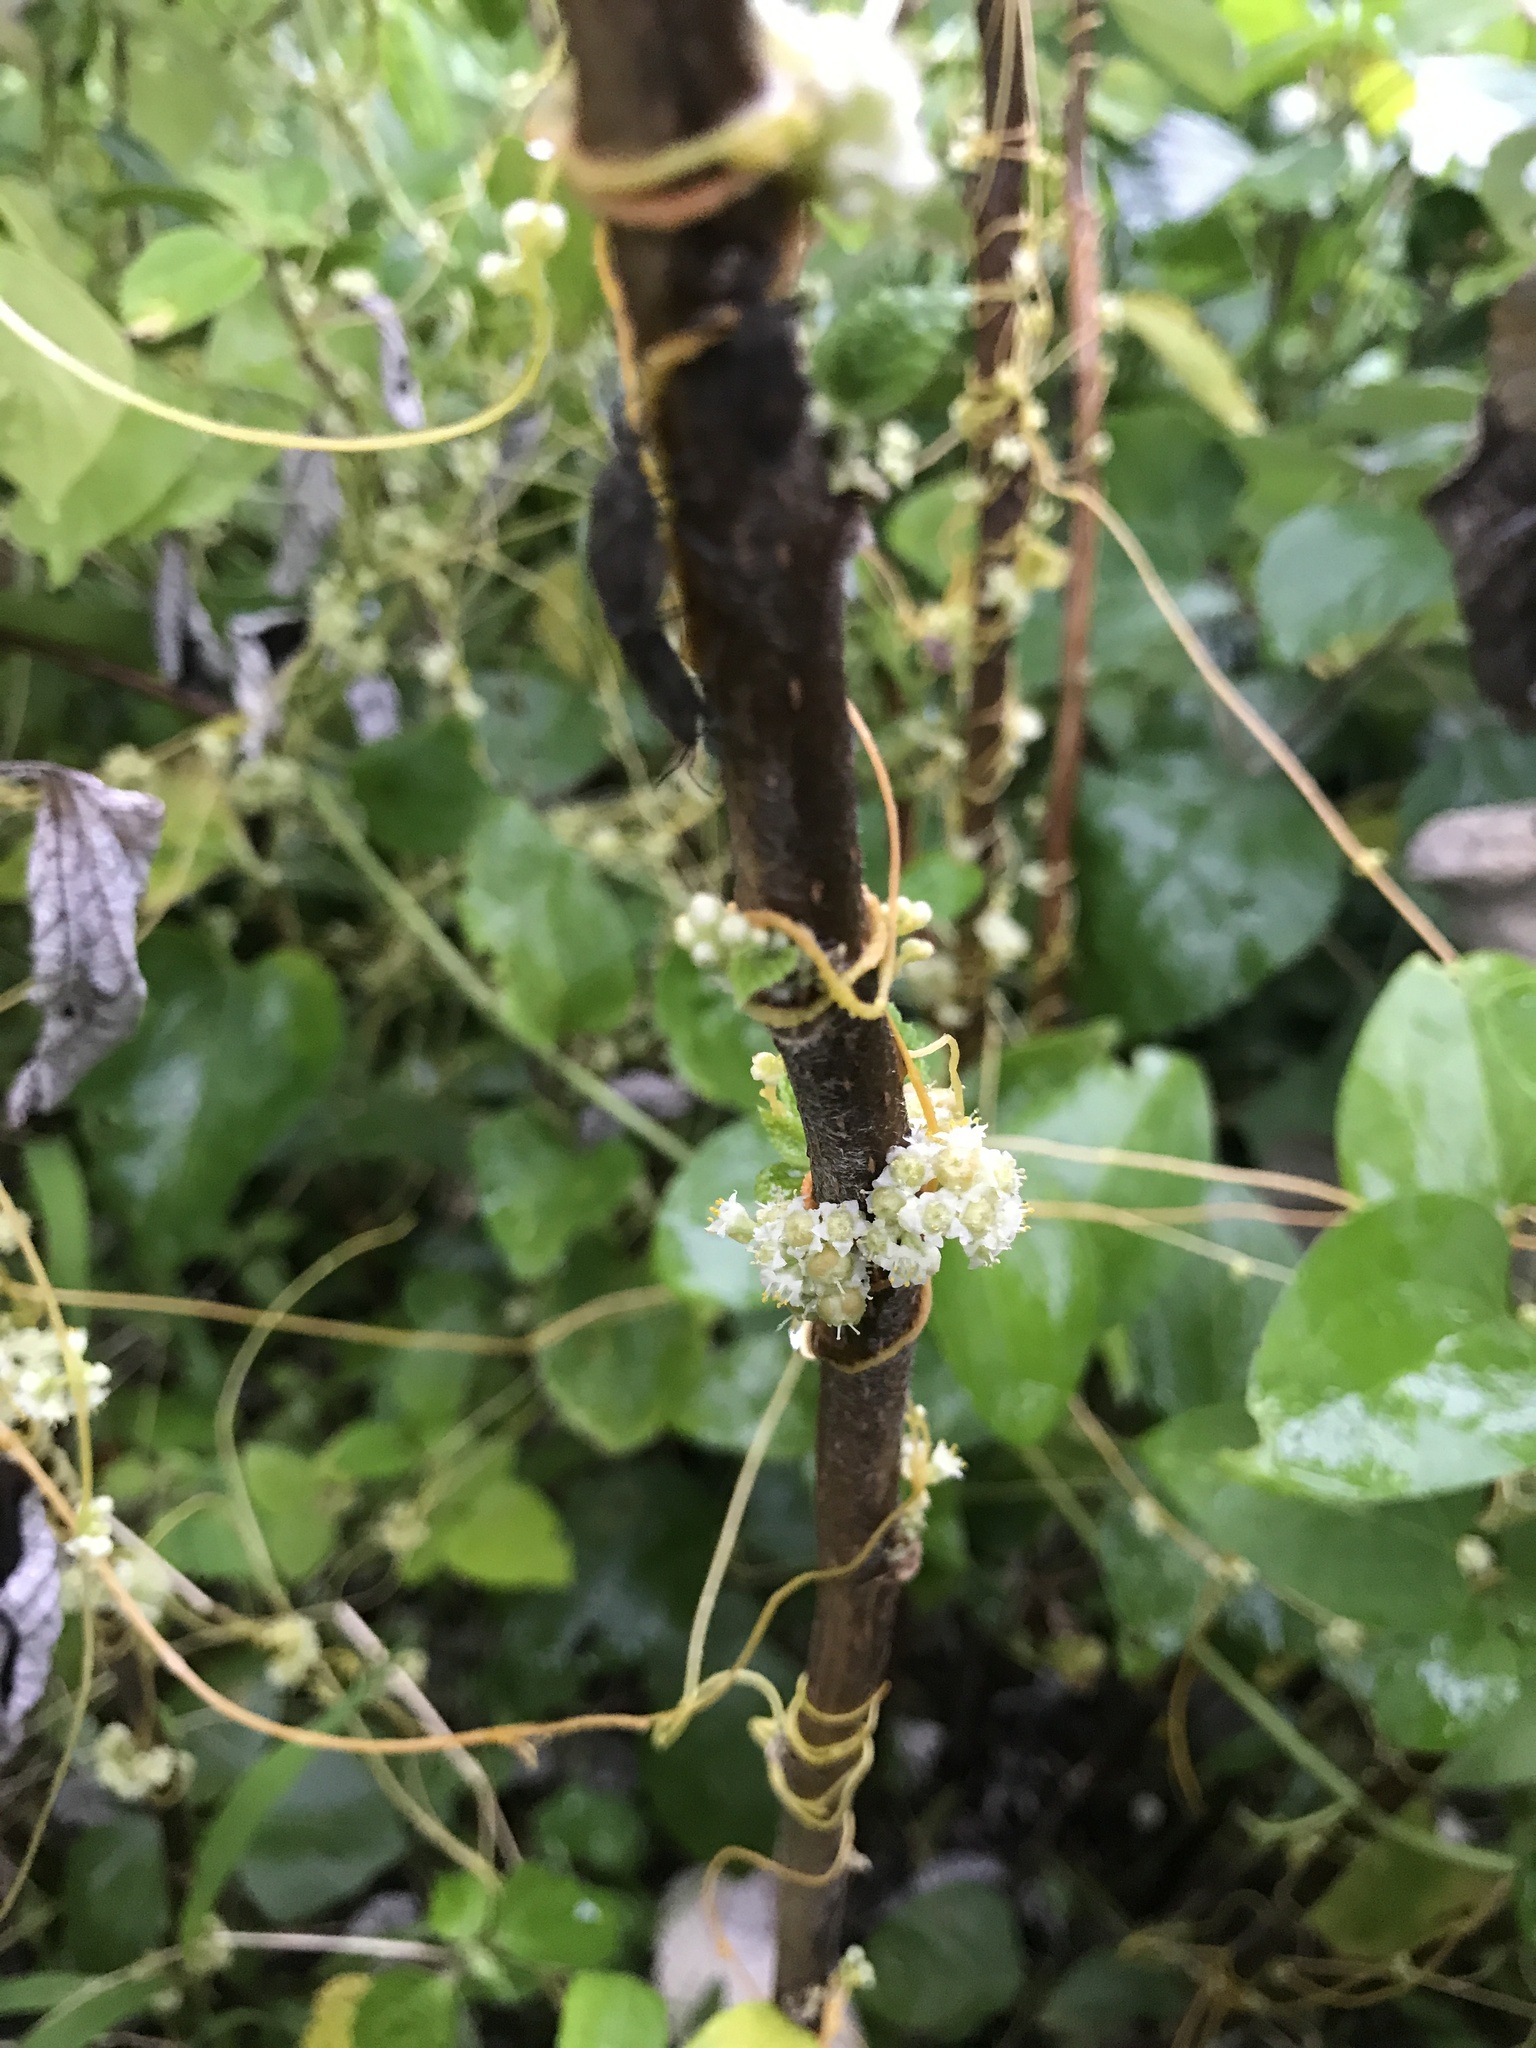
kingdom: Plantae
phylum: Tracheophyta
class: Magnoliopsida
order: Solanales
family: Convolvulaceae
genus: Cuscuta
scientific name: Cuscuta campestris
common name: Yellow dodder
